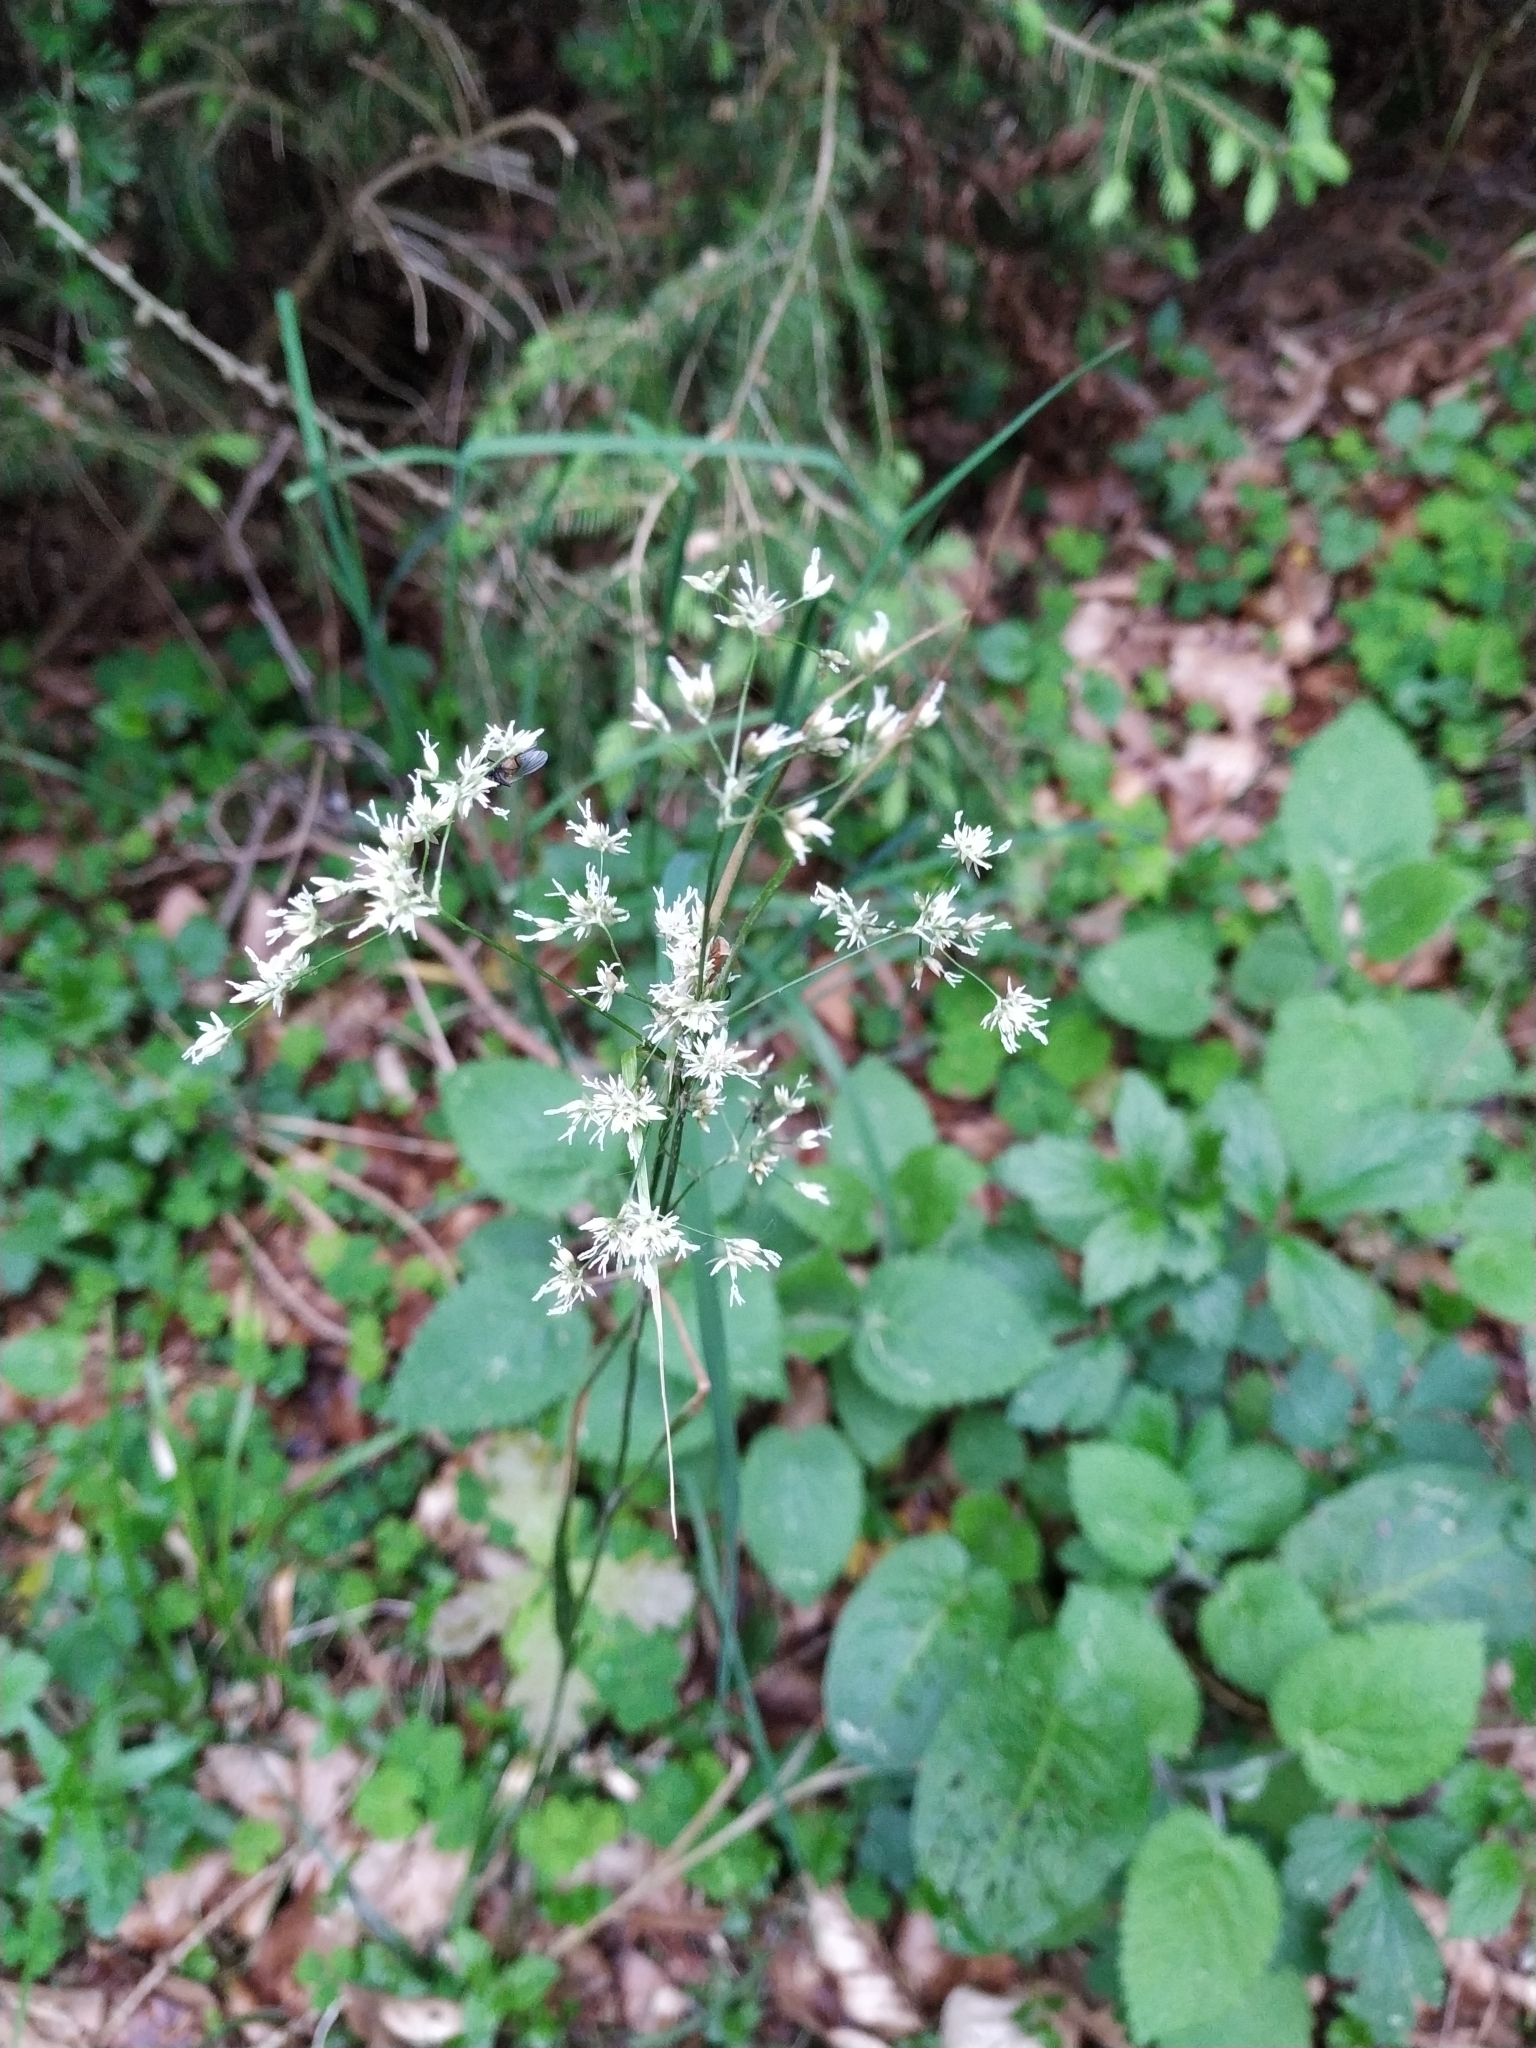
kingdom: Plantae
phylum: Tracheophyta
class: Liliopsida
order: Poales
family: Juncaceae
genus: Luzula
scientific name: Luzula luzuloides
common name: White wood-rush
